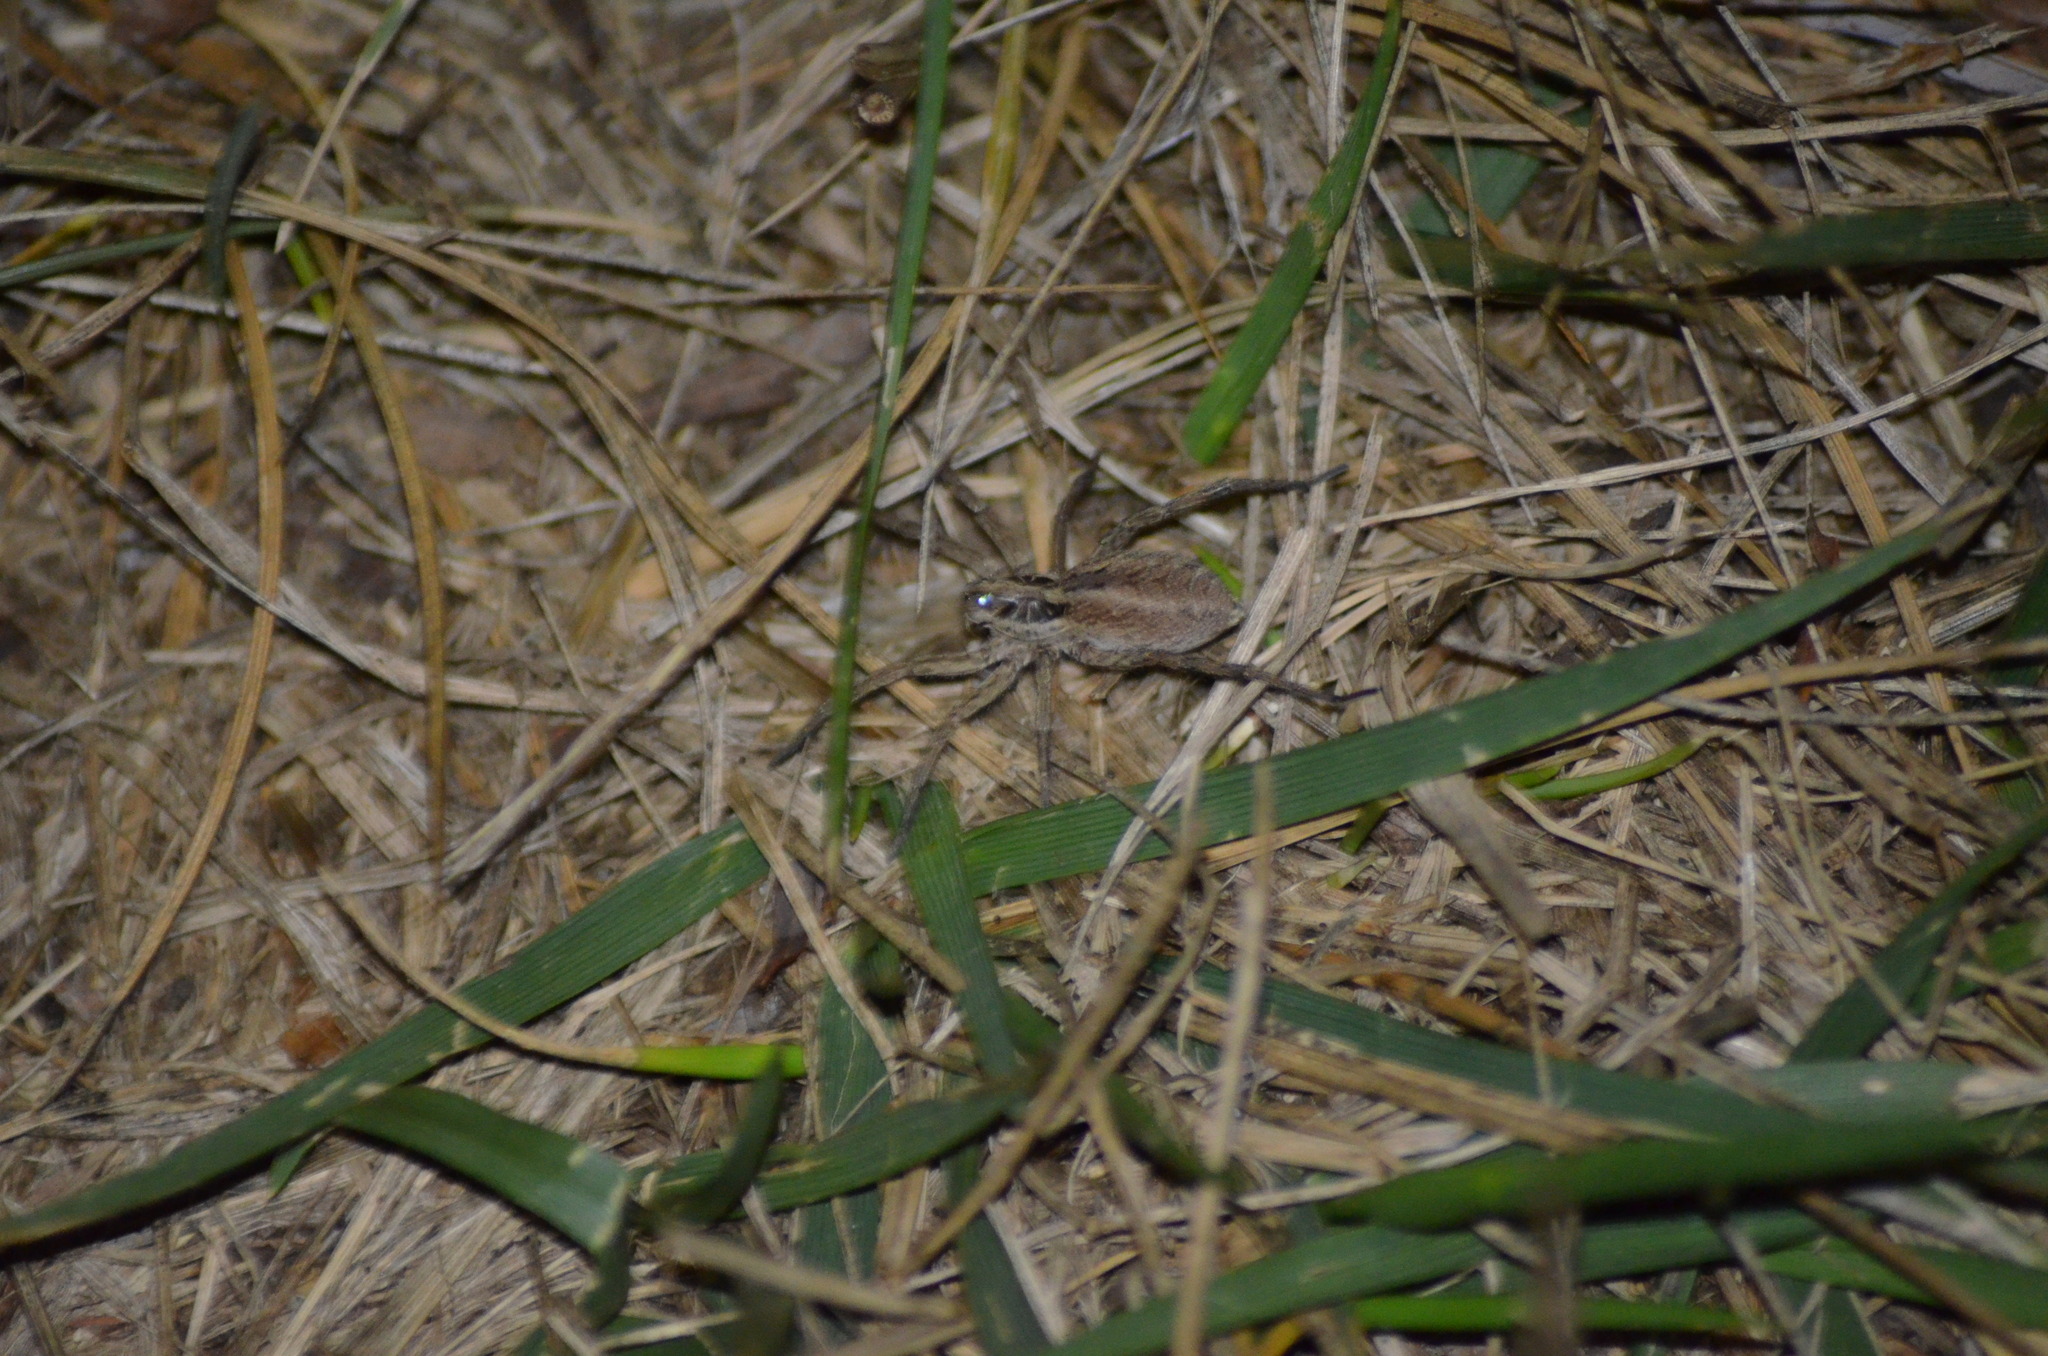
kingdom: Animalia
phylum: Arthropoda
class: Arachnida
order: Araneae
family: Lycosidae
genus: Hogna
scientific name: Hogna radiata
